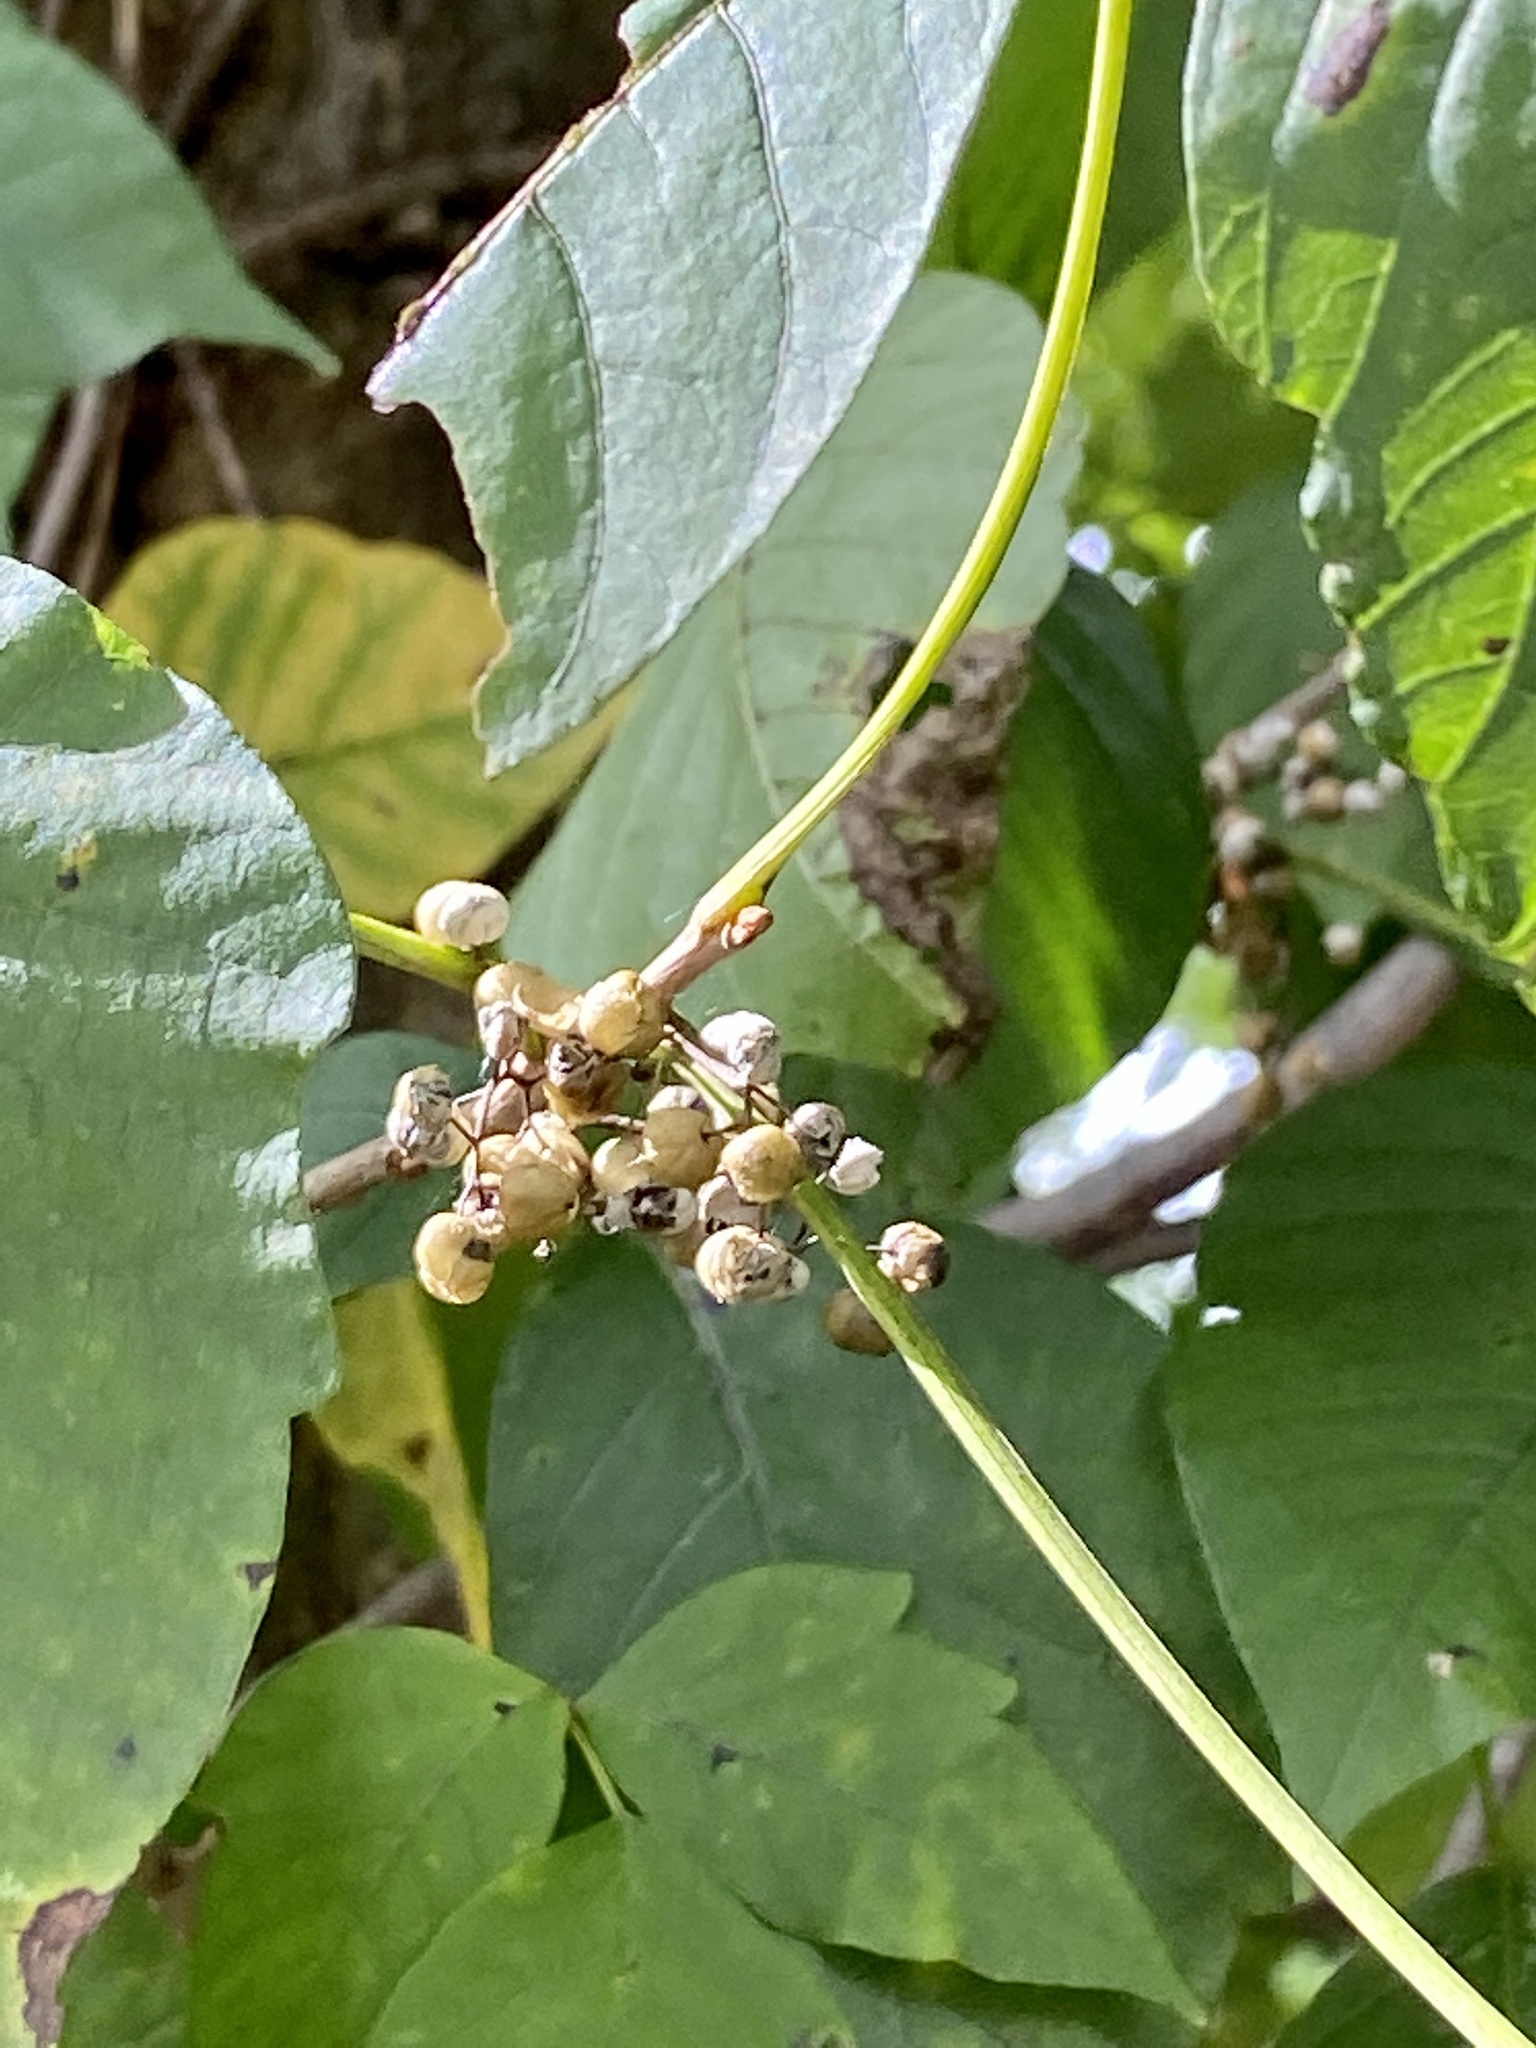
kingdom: Plantae
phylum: Tracheophyta
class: Magnoliopsida
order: Sapindales
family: Anacardiaceae
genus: Toxicodendron
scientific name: Toxicodendron radicans
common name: Poison ivy
